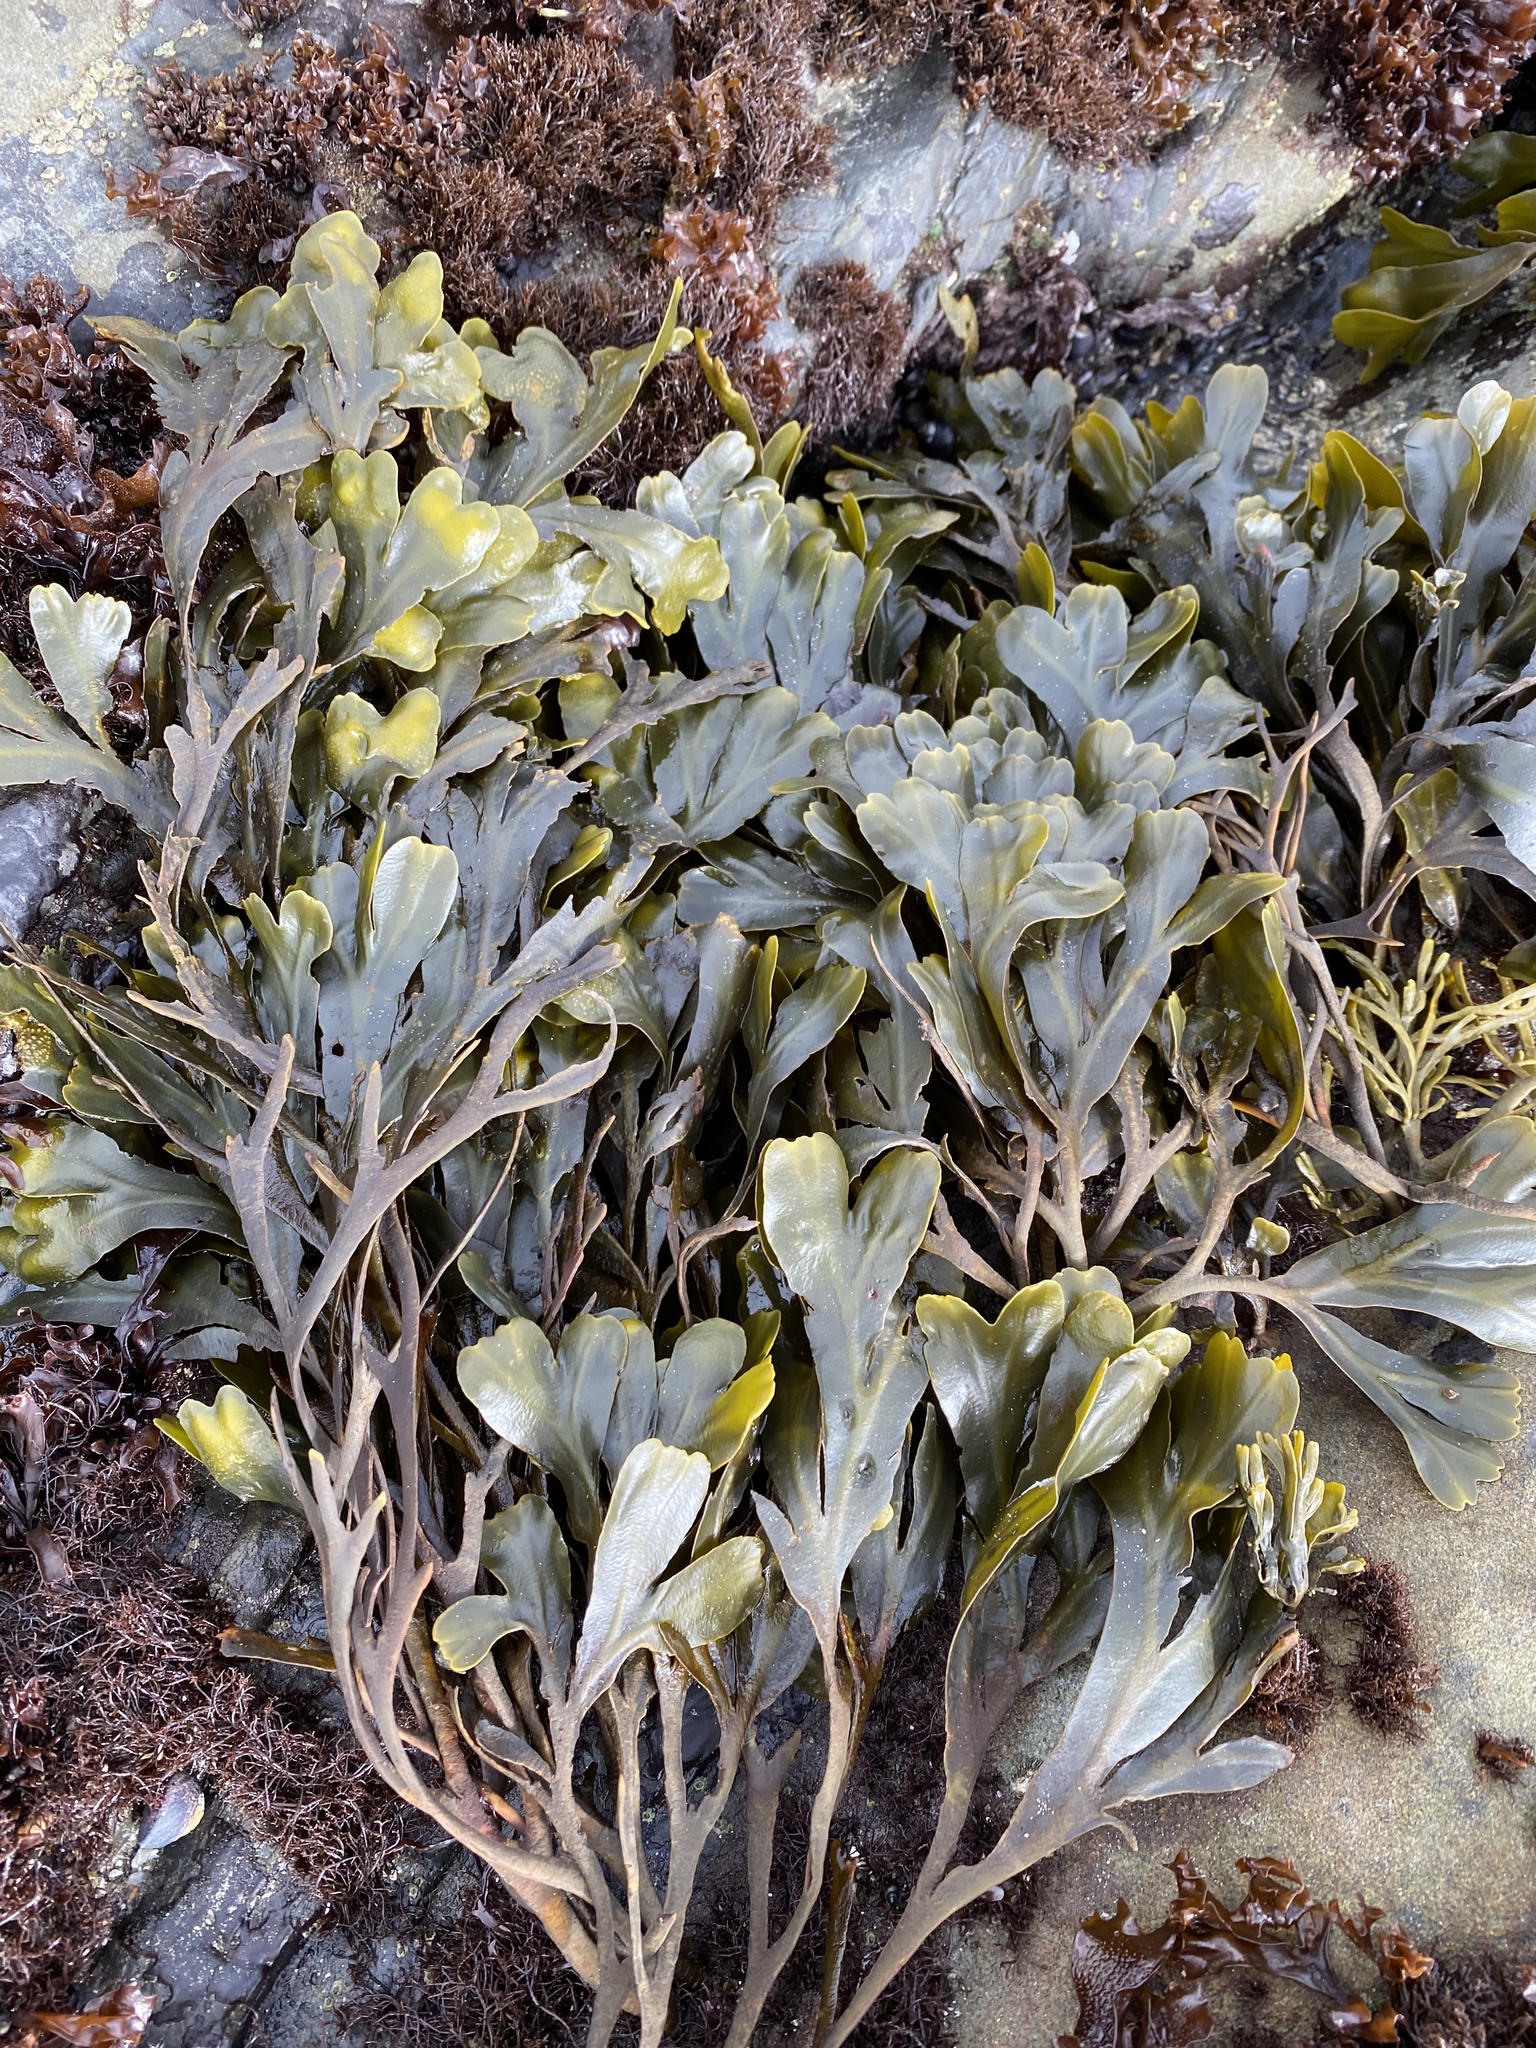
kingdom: Chromista
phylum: Ochrophyta
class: Phaeophyceae
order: Fucales
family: Fucaceae
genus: Fucus
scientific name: Fucus distichus
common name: Rockweed
